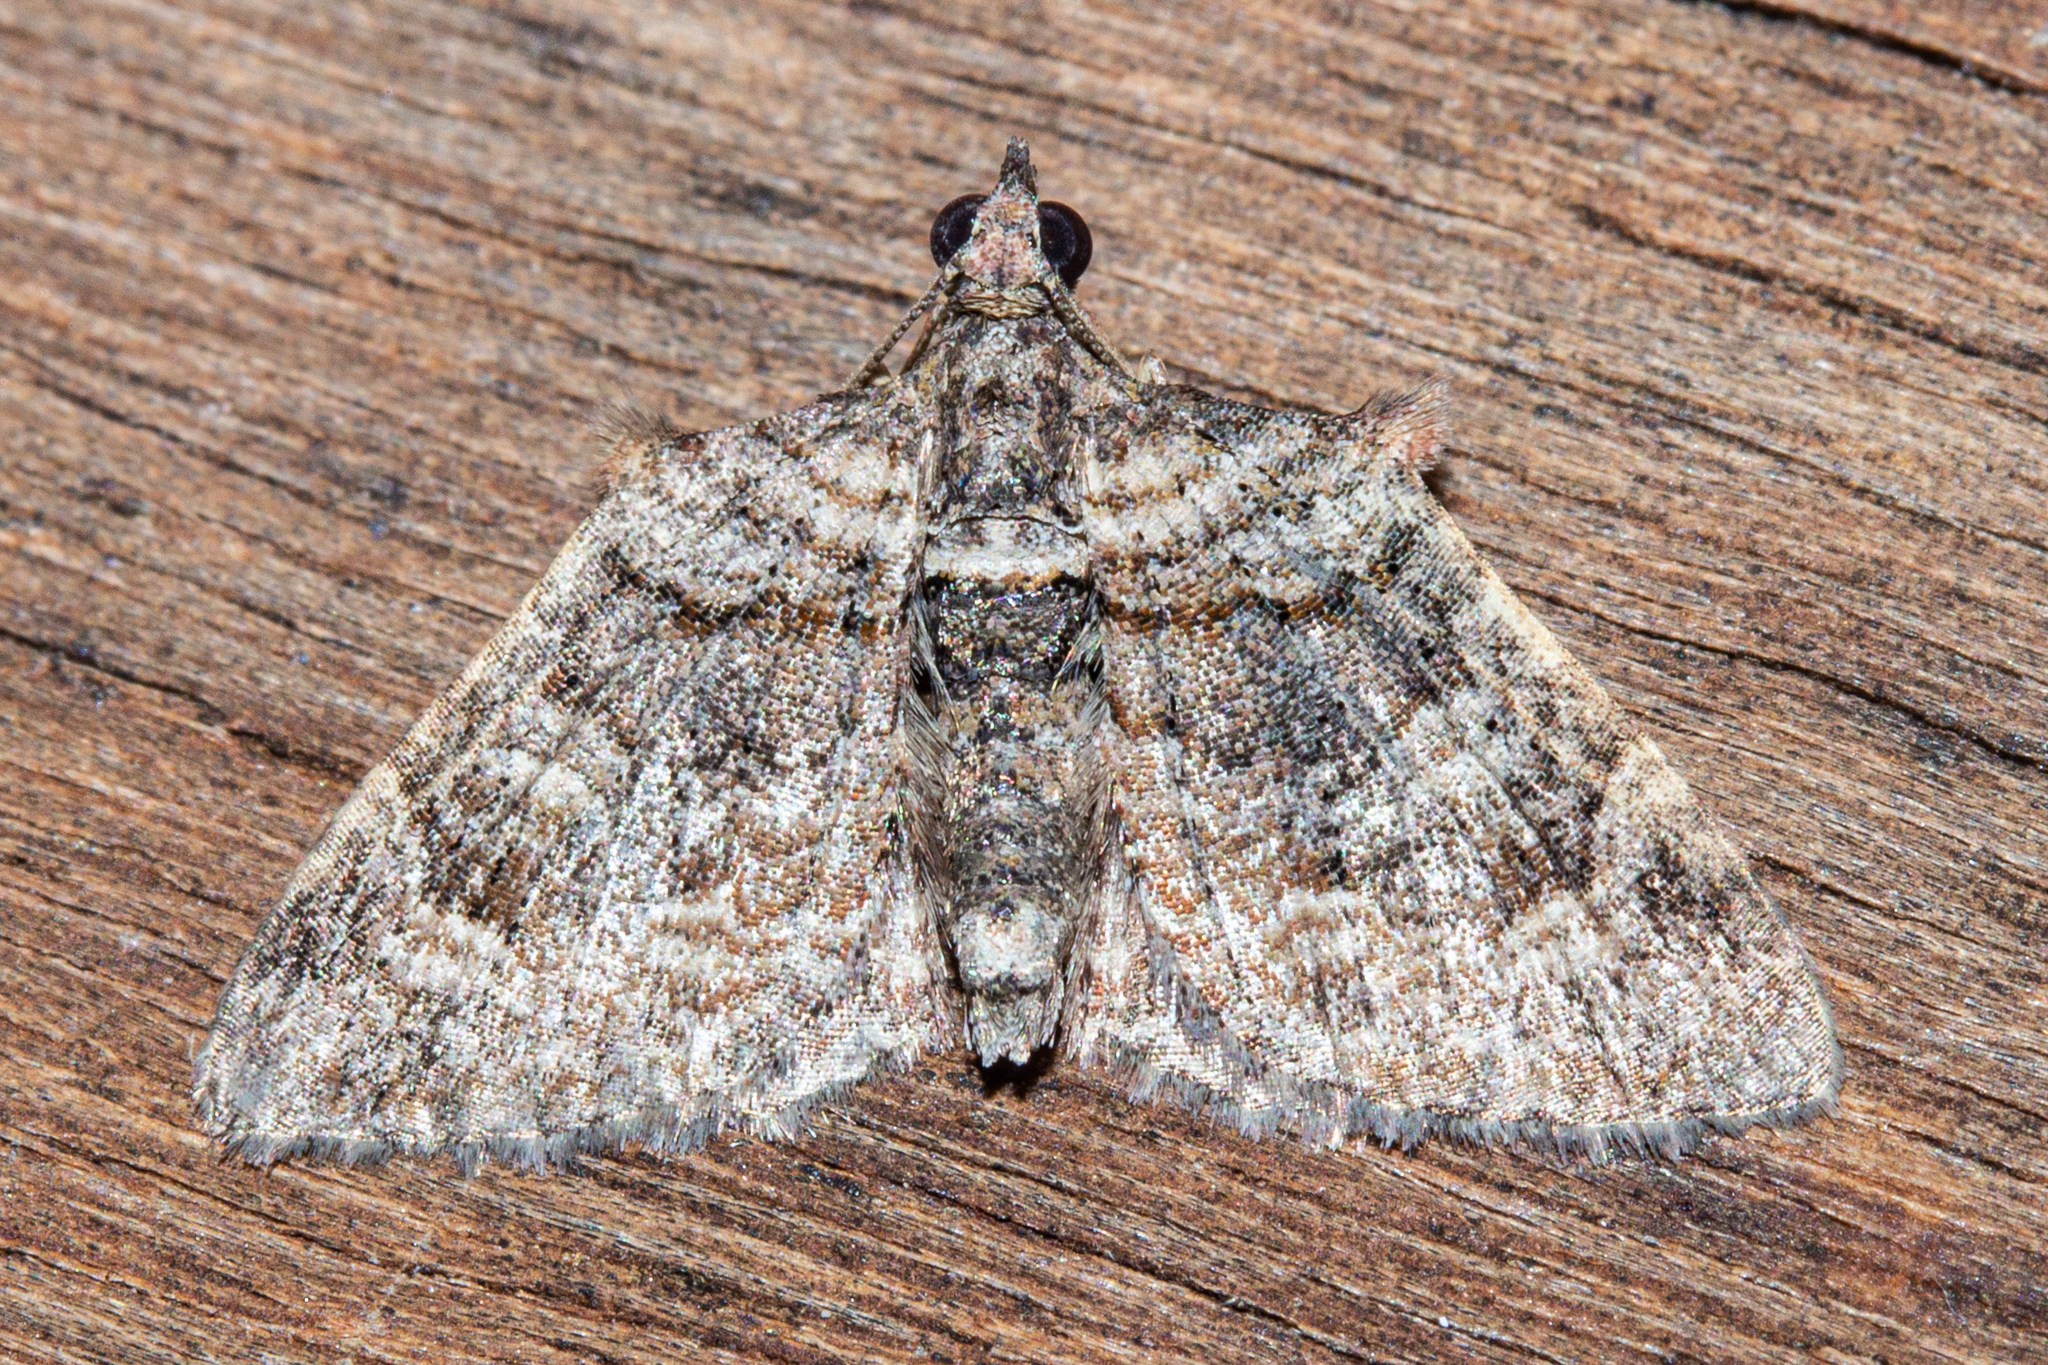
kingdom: Animalia
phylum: Arthropoda
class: Insecta
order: Lepidoptera
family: Geometridae
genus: Phrissogonus
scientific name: Phrissogonus laticostata
